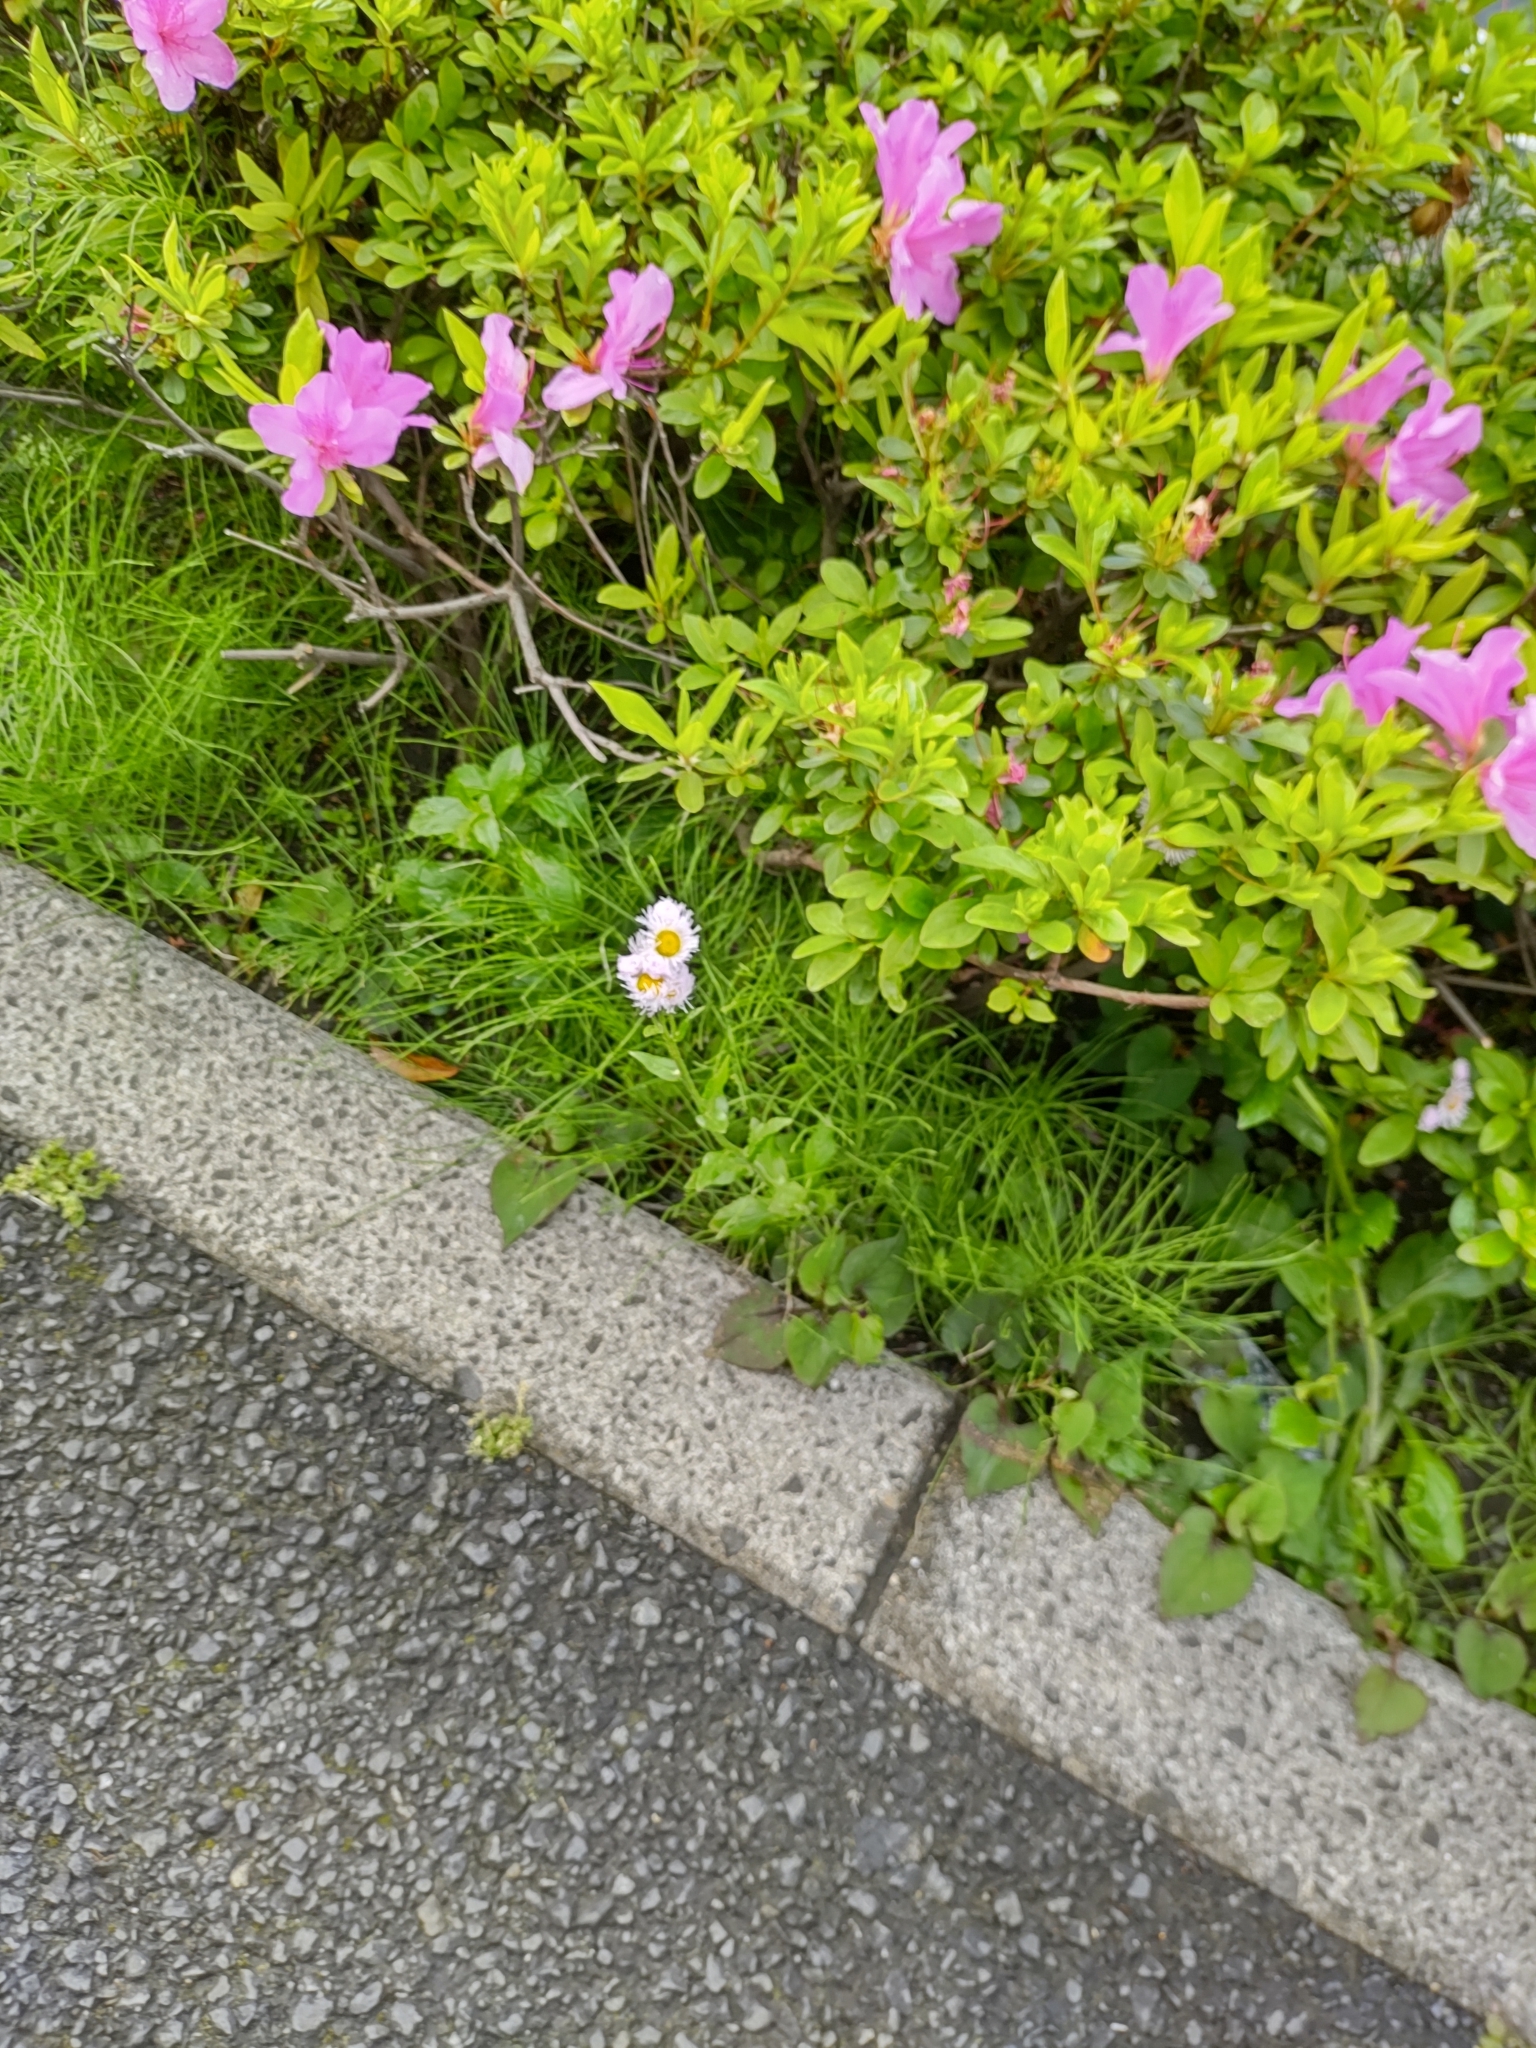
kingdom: Plantae
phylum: Tracheophyta
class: Magnoliopsida
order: Asterales
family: Asteraceae
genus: Erigeron
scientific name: Erigeron philadelphicus
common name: Robin's-plantain
